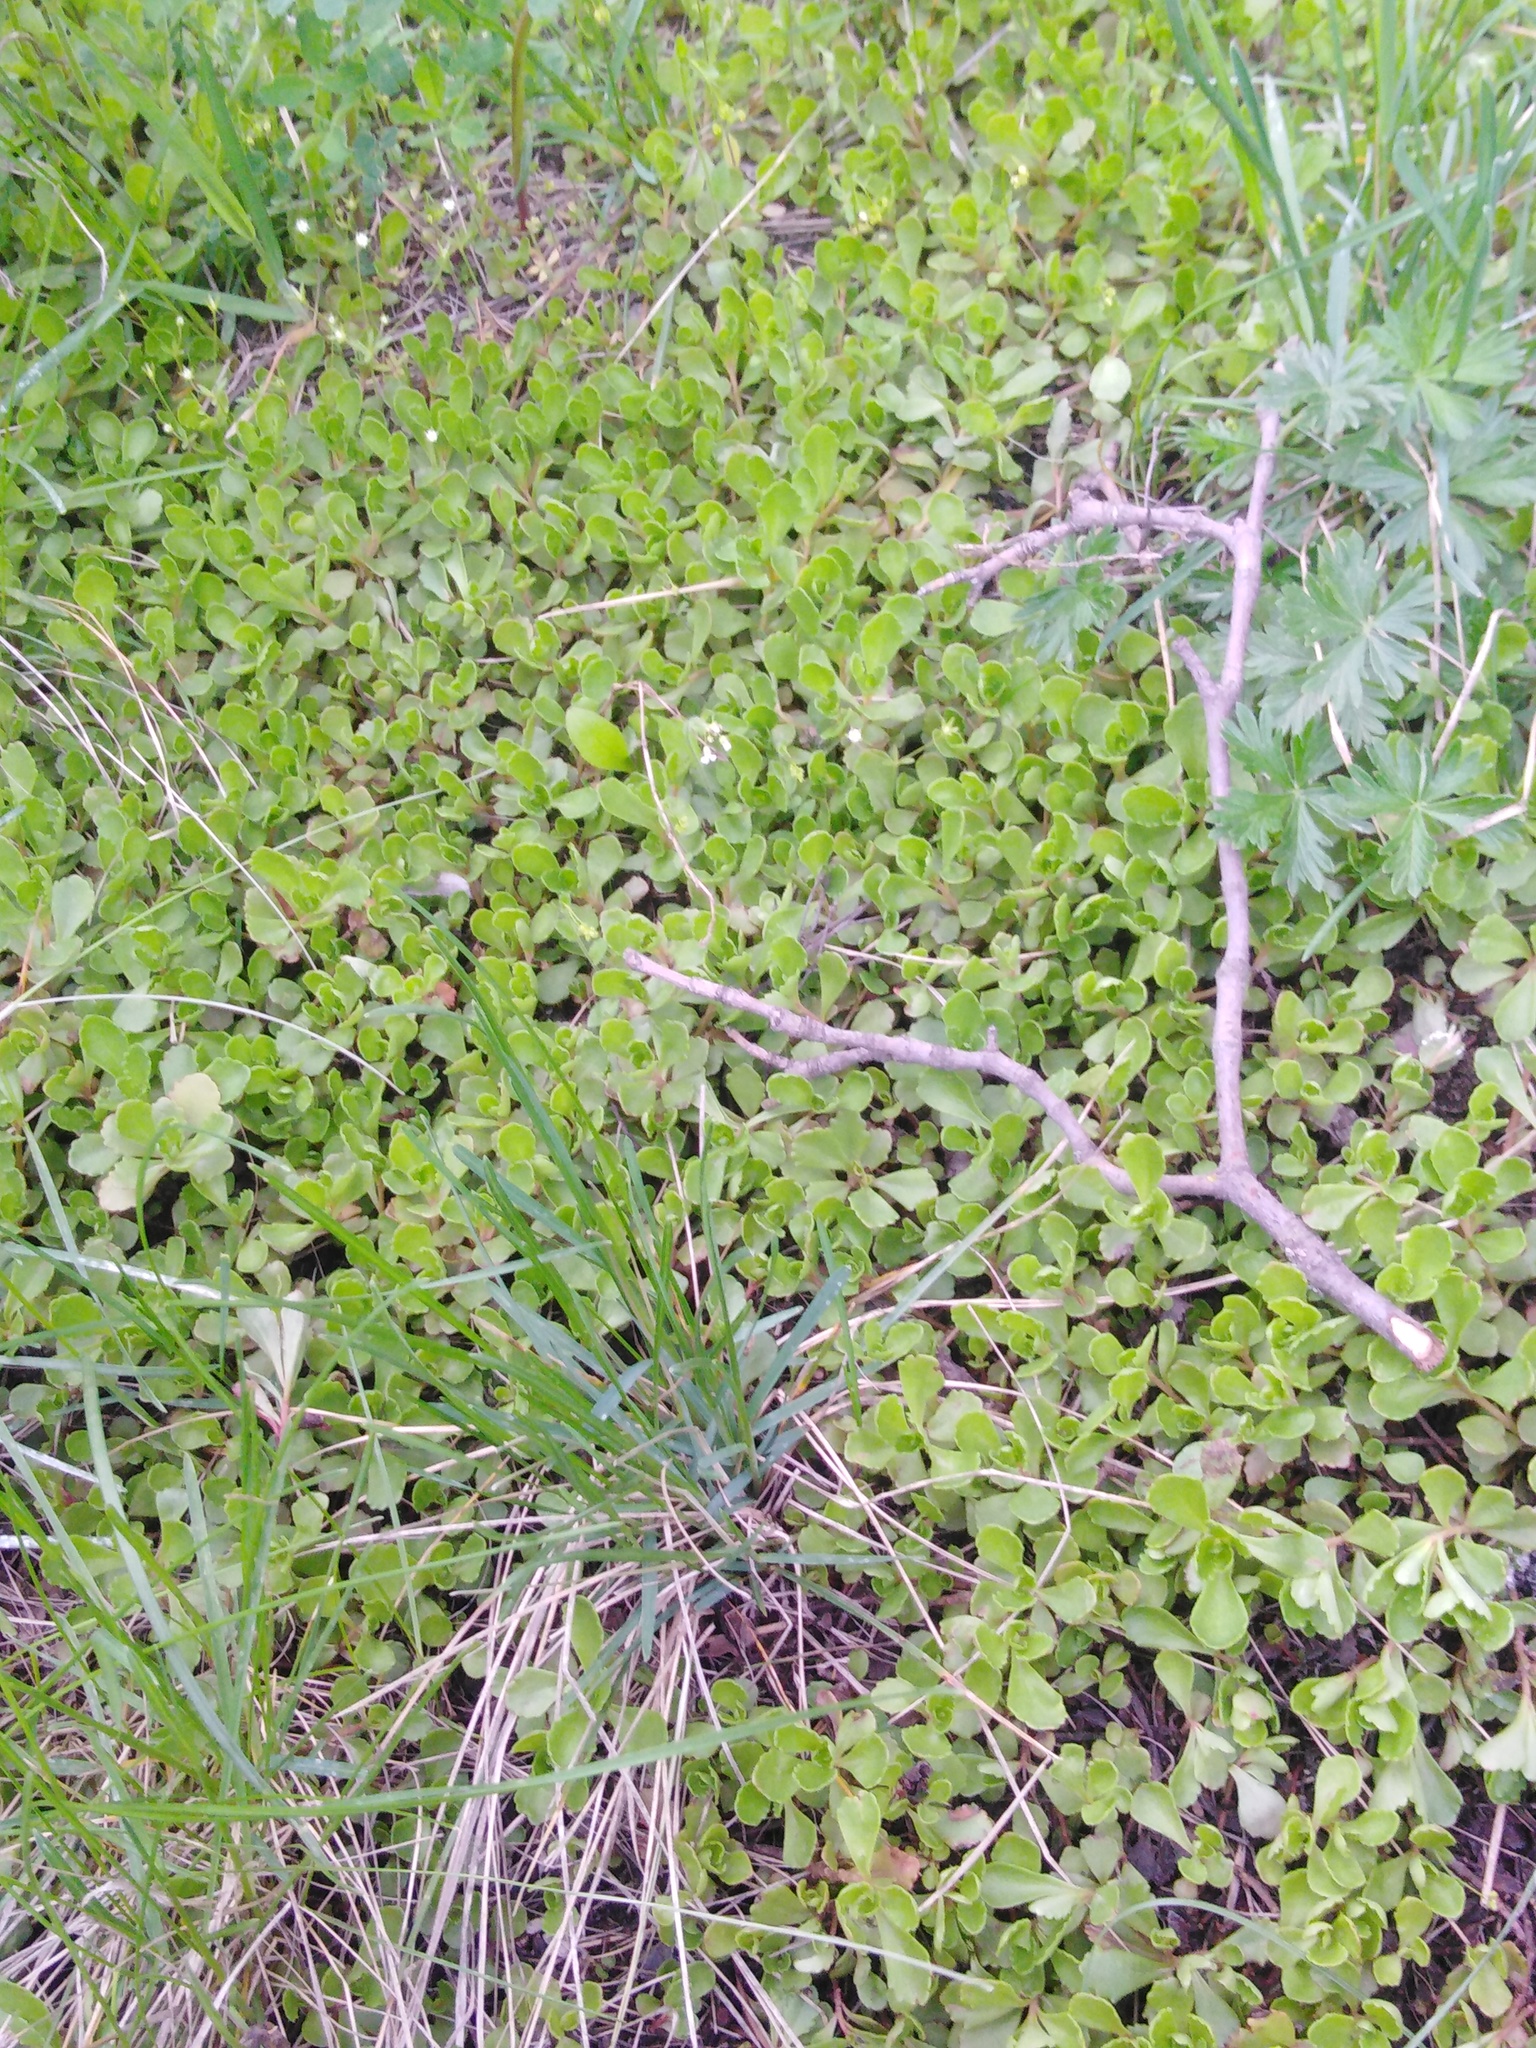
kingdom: Plantae
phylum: Tracheophyta
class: Magnoliopsida
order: Saxifragales
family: Crassulaceae
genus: Phedimus
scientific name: Phedimus spurius
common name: Caucasian stonecrop
